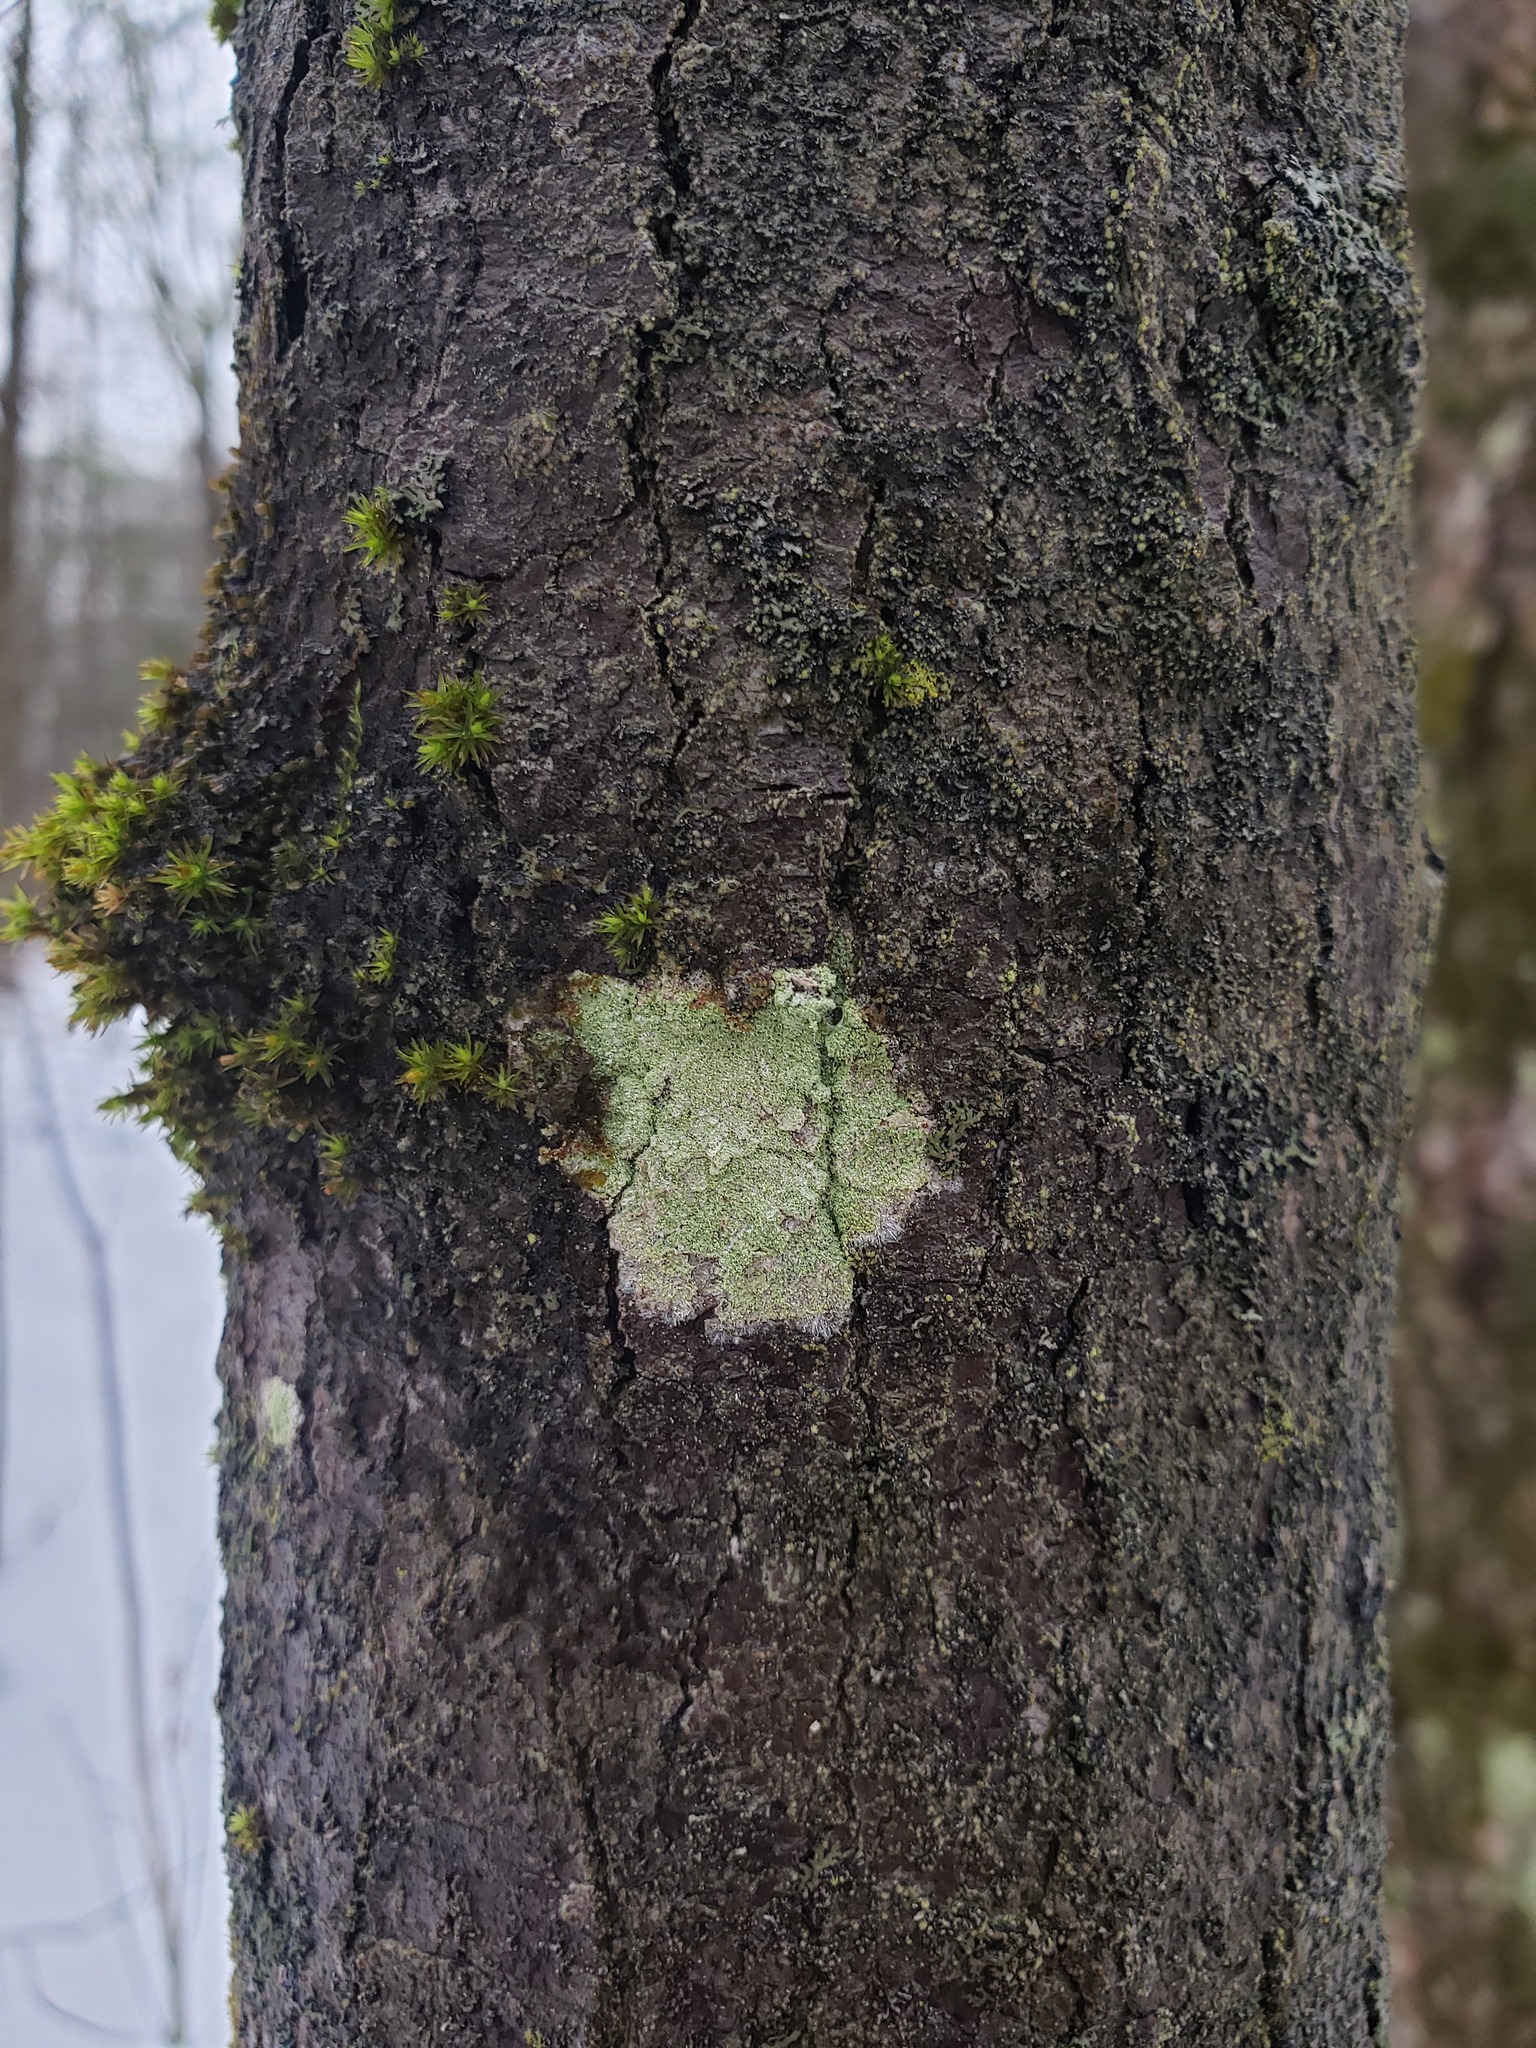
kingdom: Fungi
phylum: Ascomycota
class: Lecanoromycetes
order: Pertusariales
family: Pertusariaceae
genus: Verseghya
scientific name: Verseghya thysanophora
